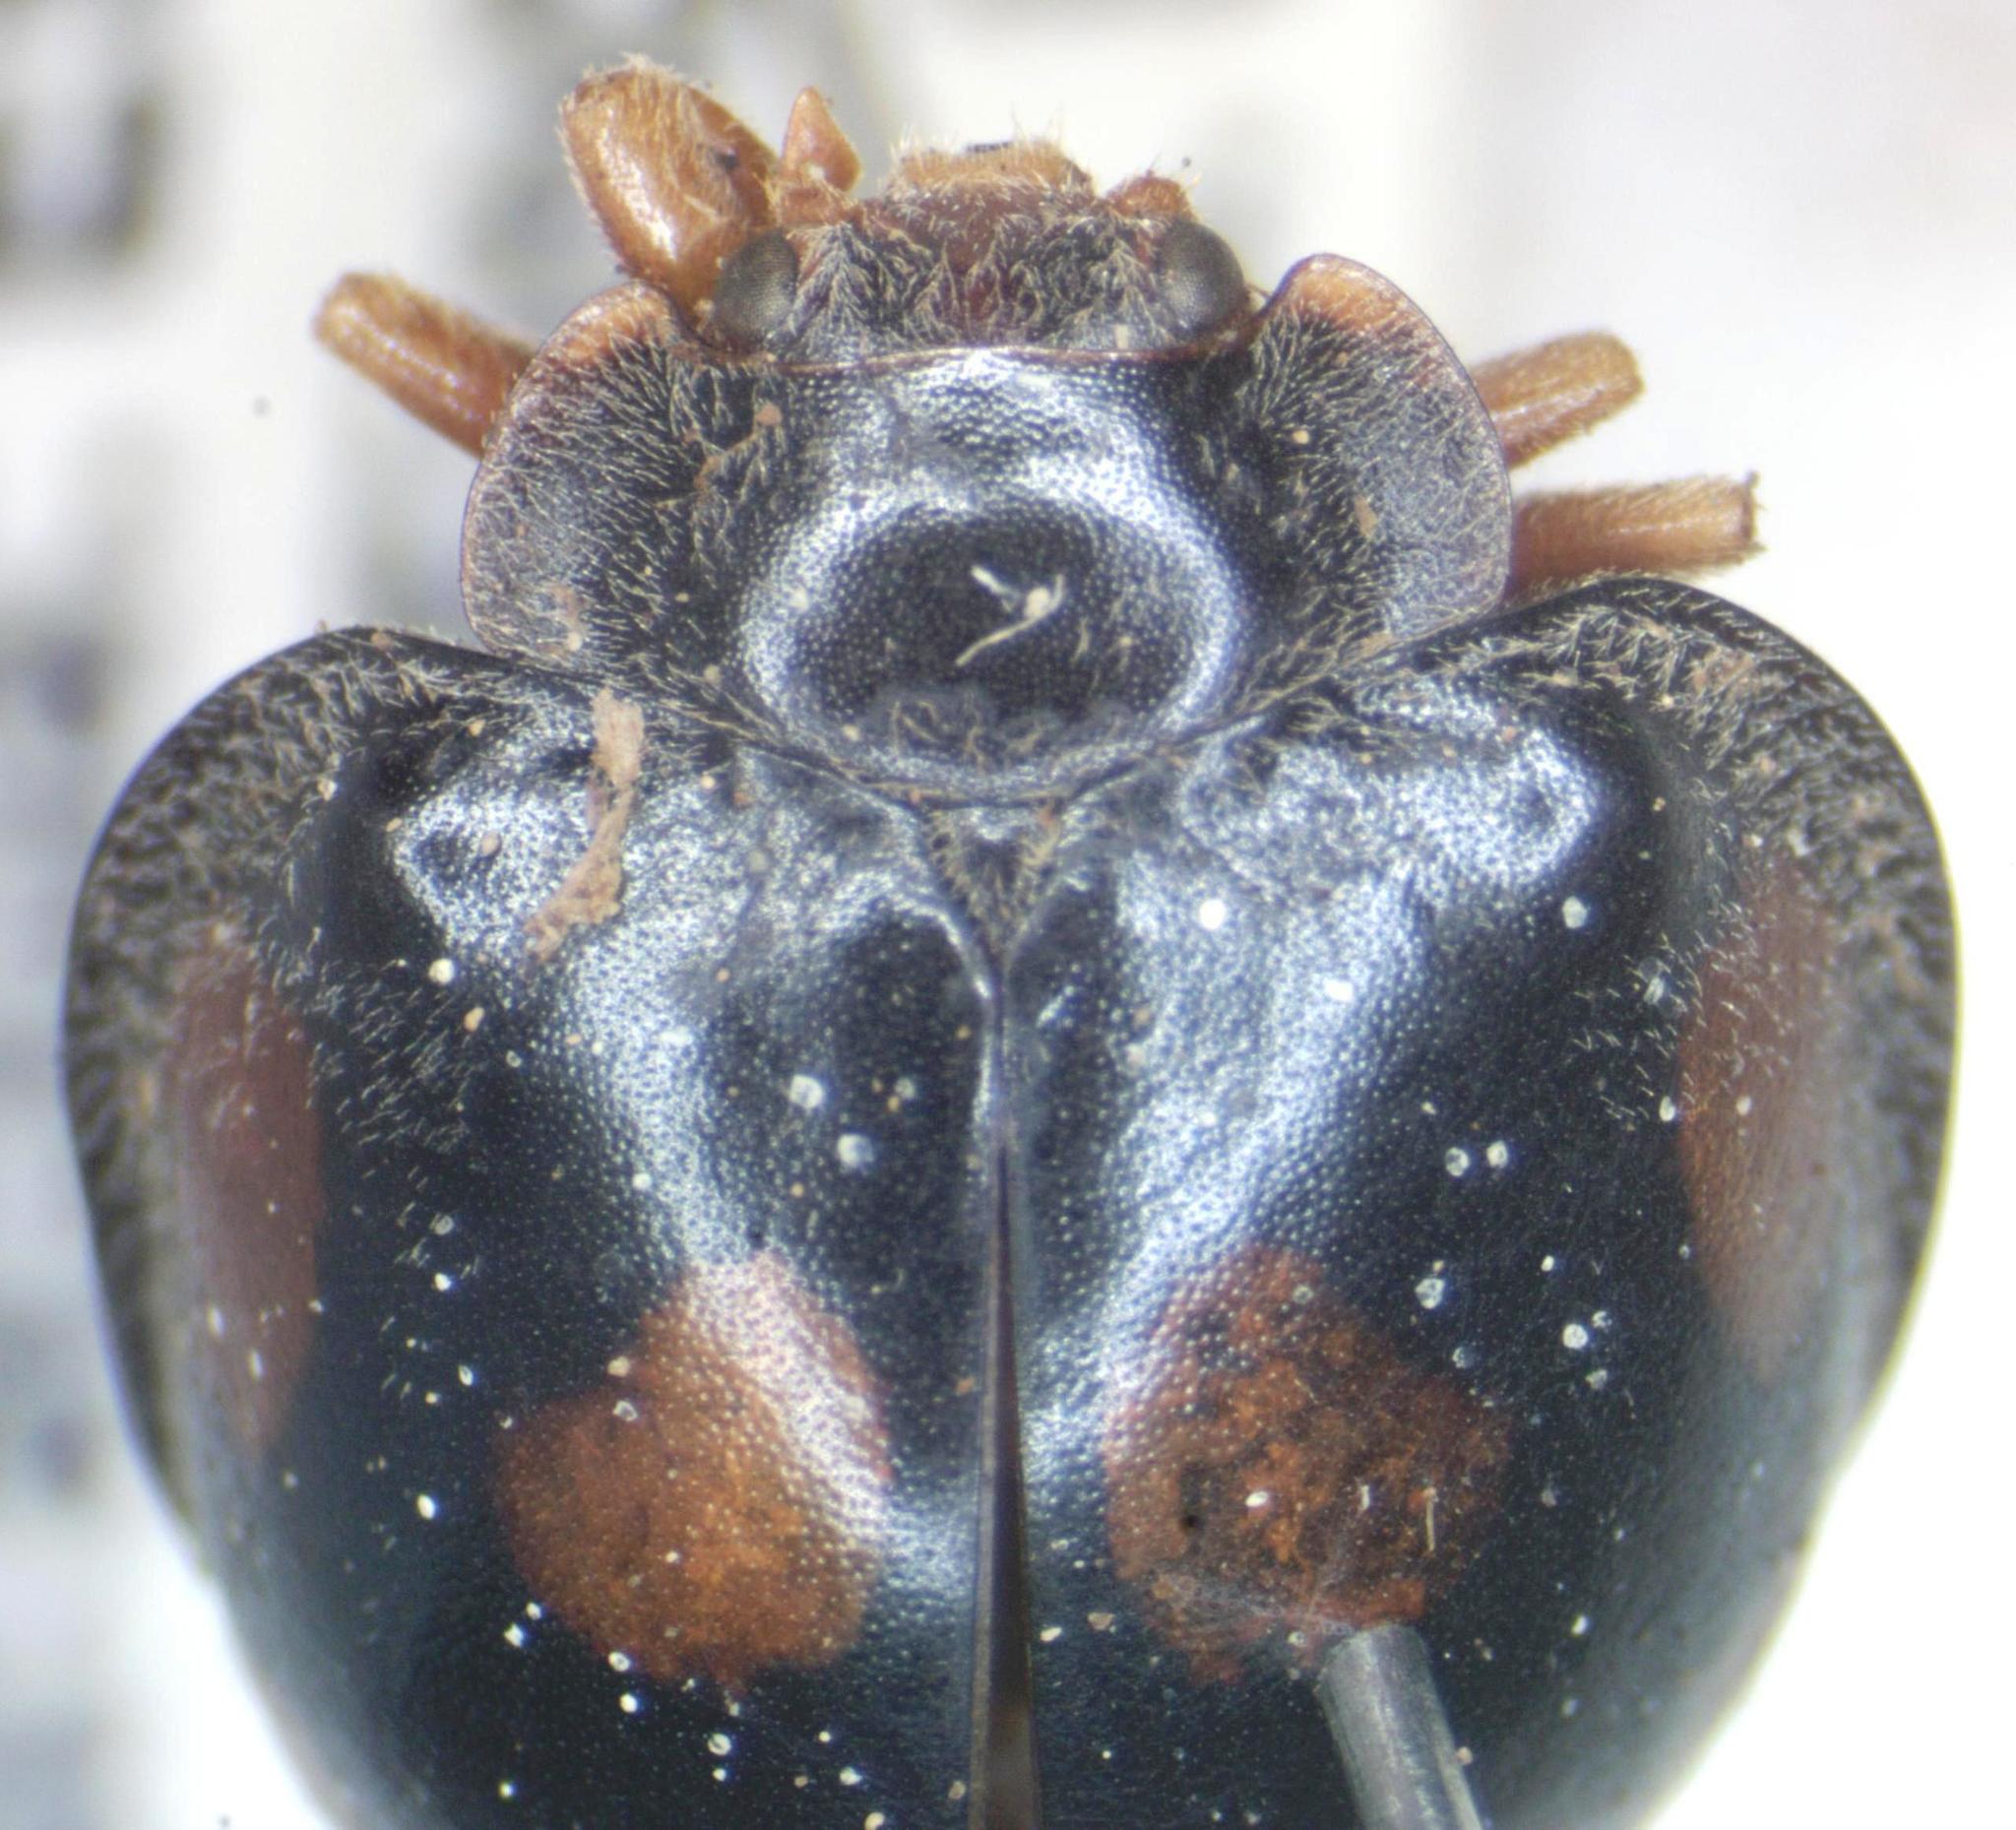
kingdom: Animalia
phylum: Arthropoda
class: Insecta
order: Coleoptera
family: Coccinellidae
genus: Epilachna
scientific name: Epilachna
